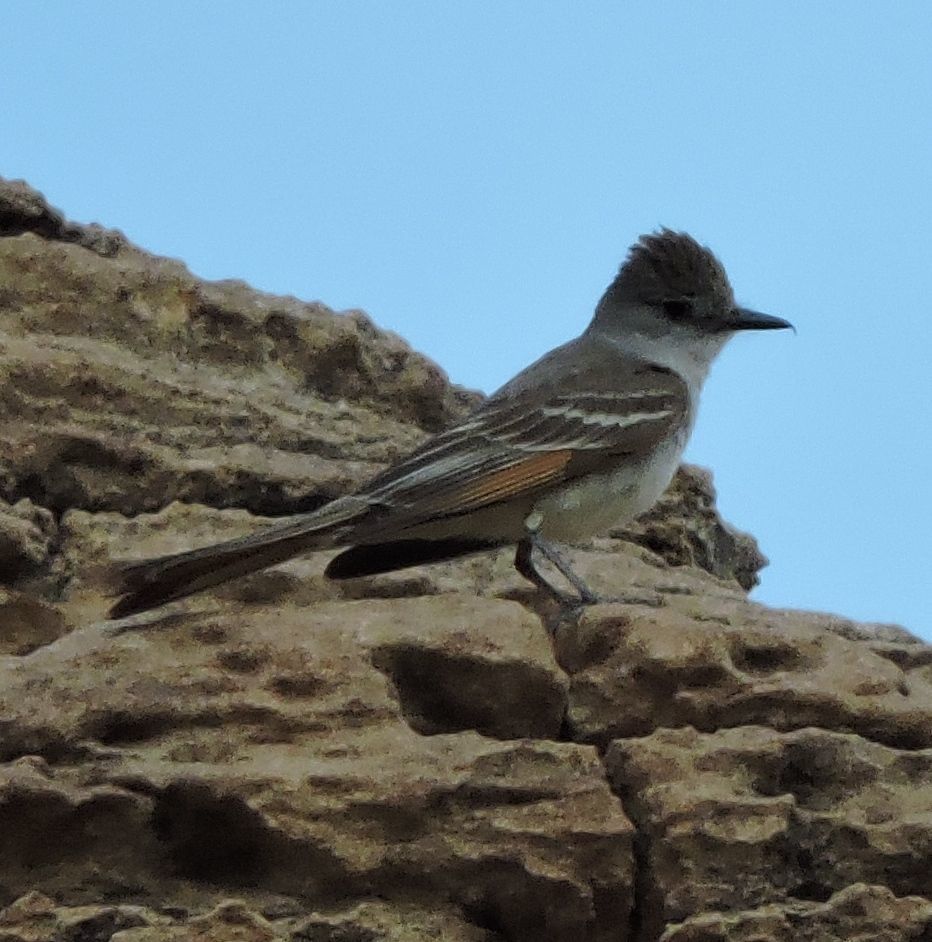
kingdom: Animalia
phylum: Chordata
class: Aves
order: Passeriformes
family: Tyrannidae
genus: Myiarchus
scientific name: Myiarchus cinerascens
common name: Ash-throated flycatcher
